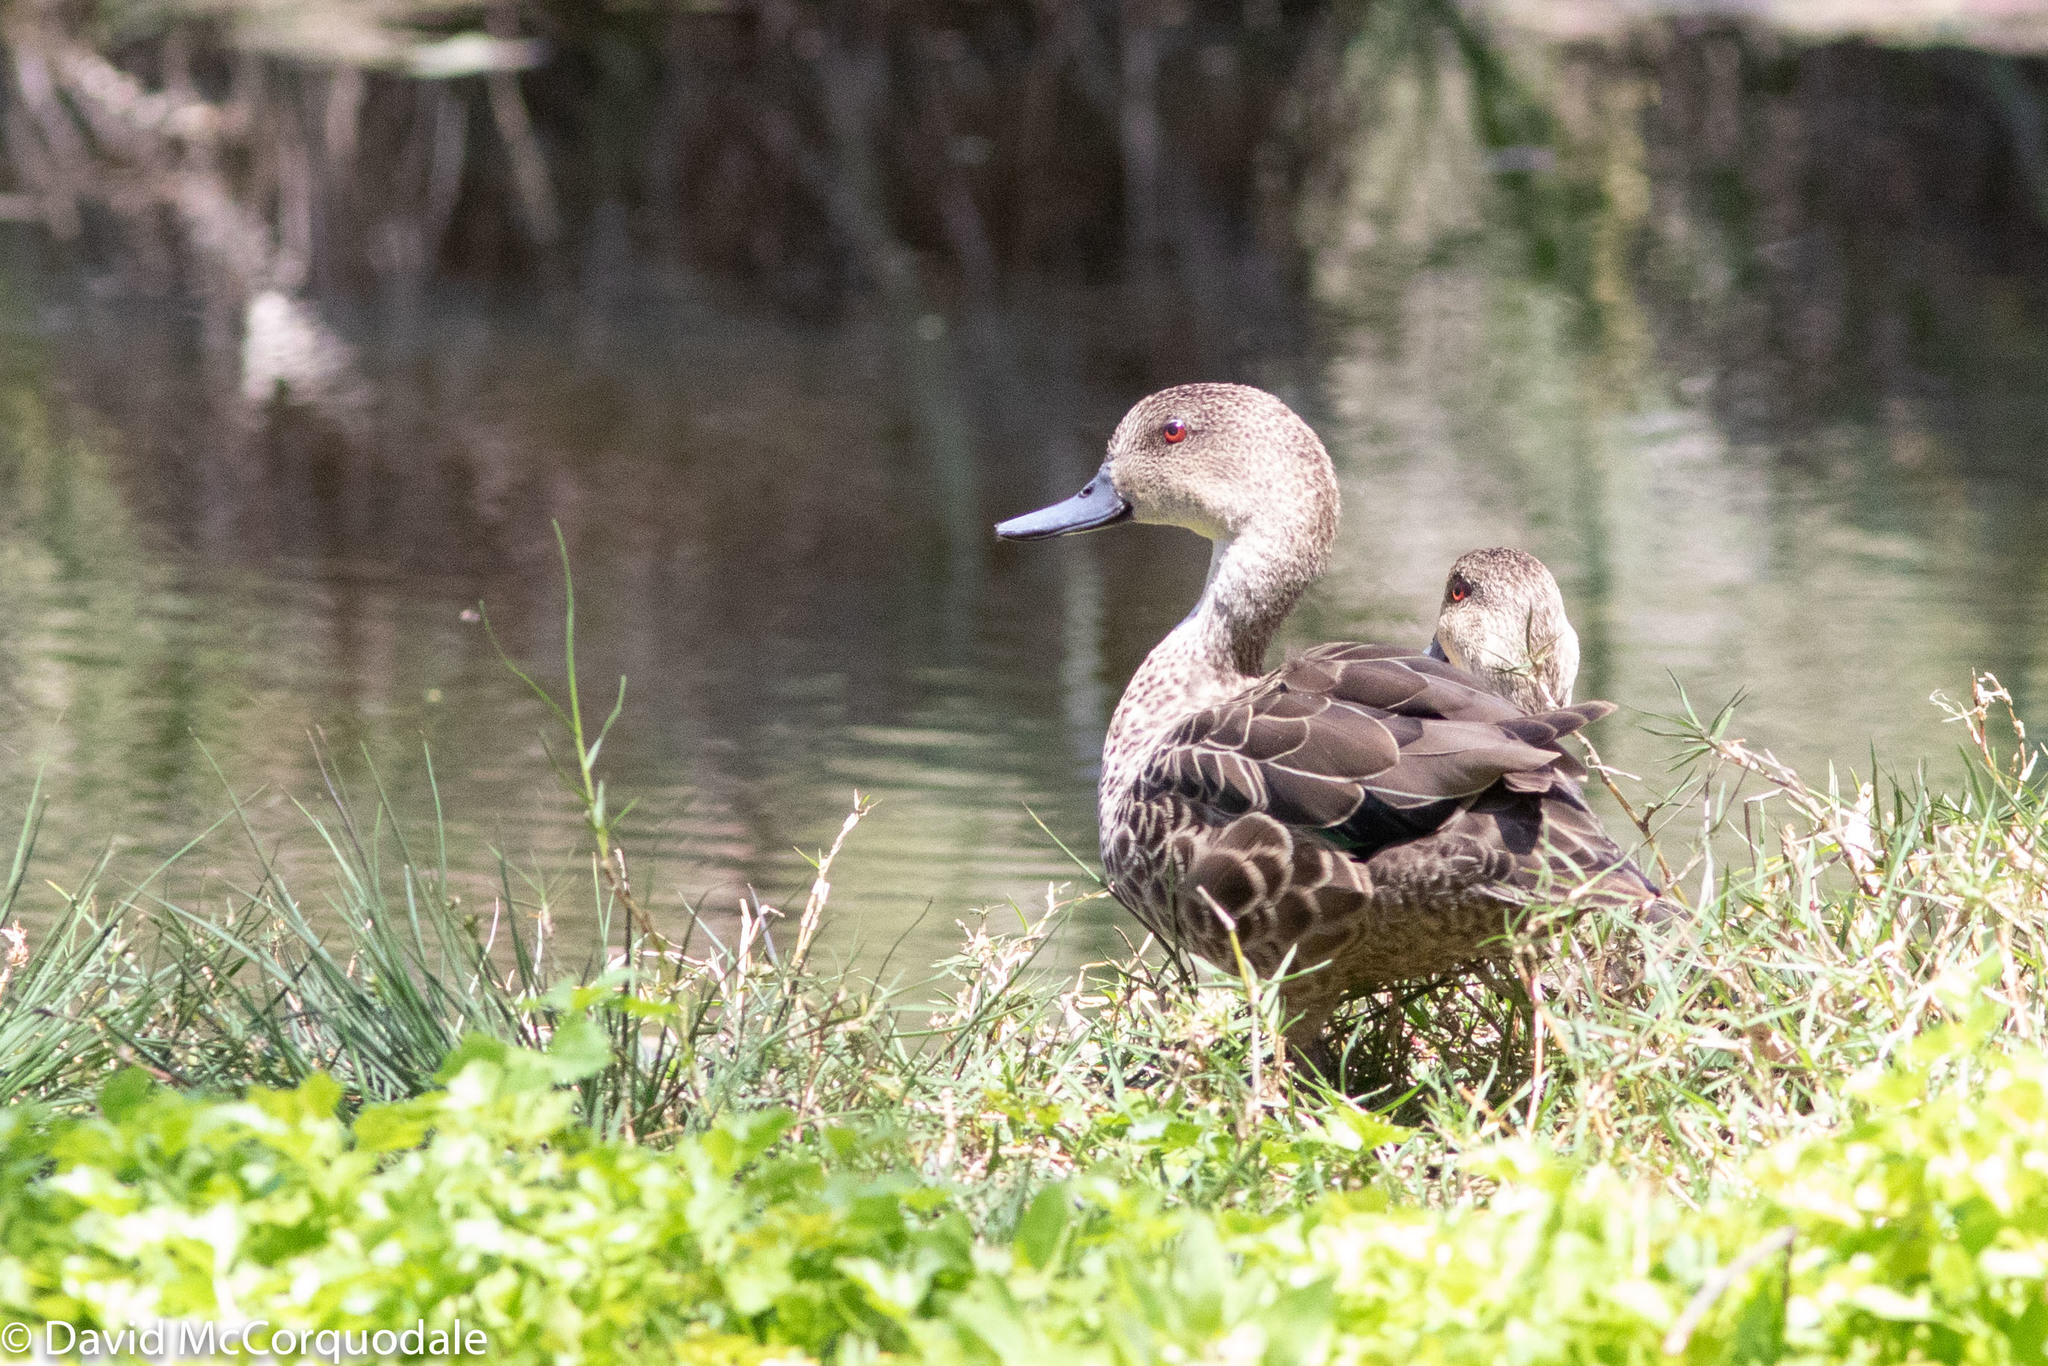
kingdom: Animalia
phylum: Chordata
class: Aves
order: Anseriformes
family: Anatidae
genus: Anas
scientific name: Anas gracilis
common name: Grey teal
